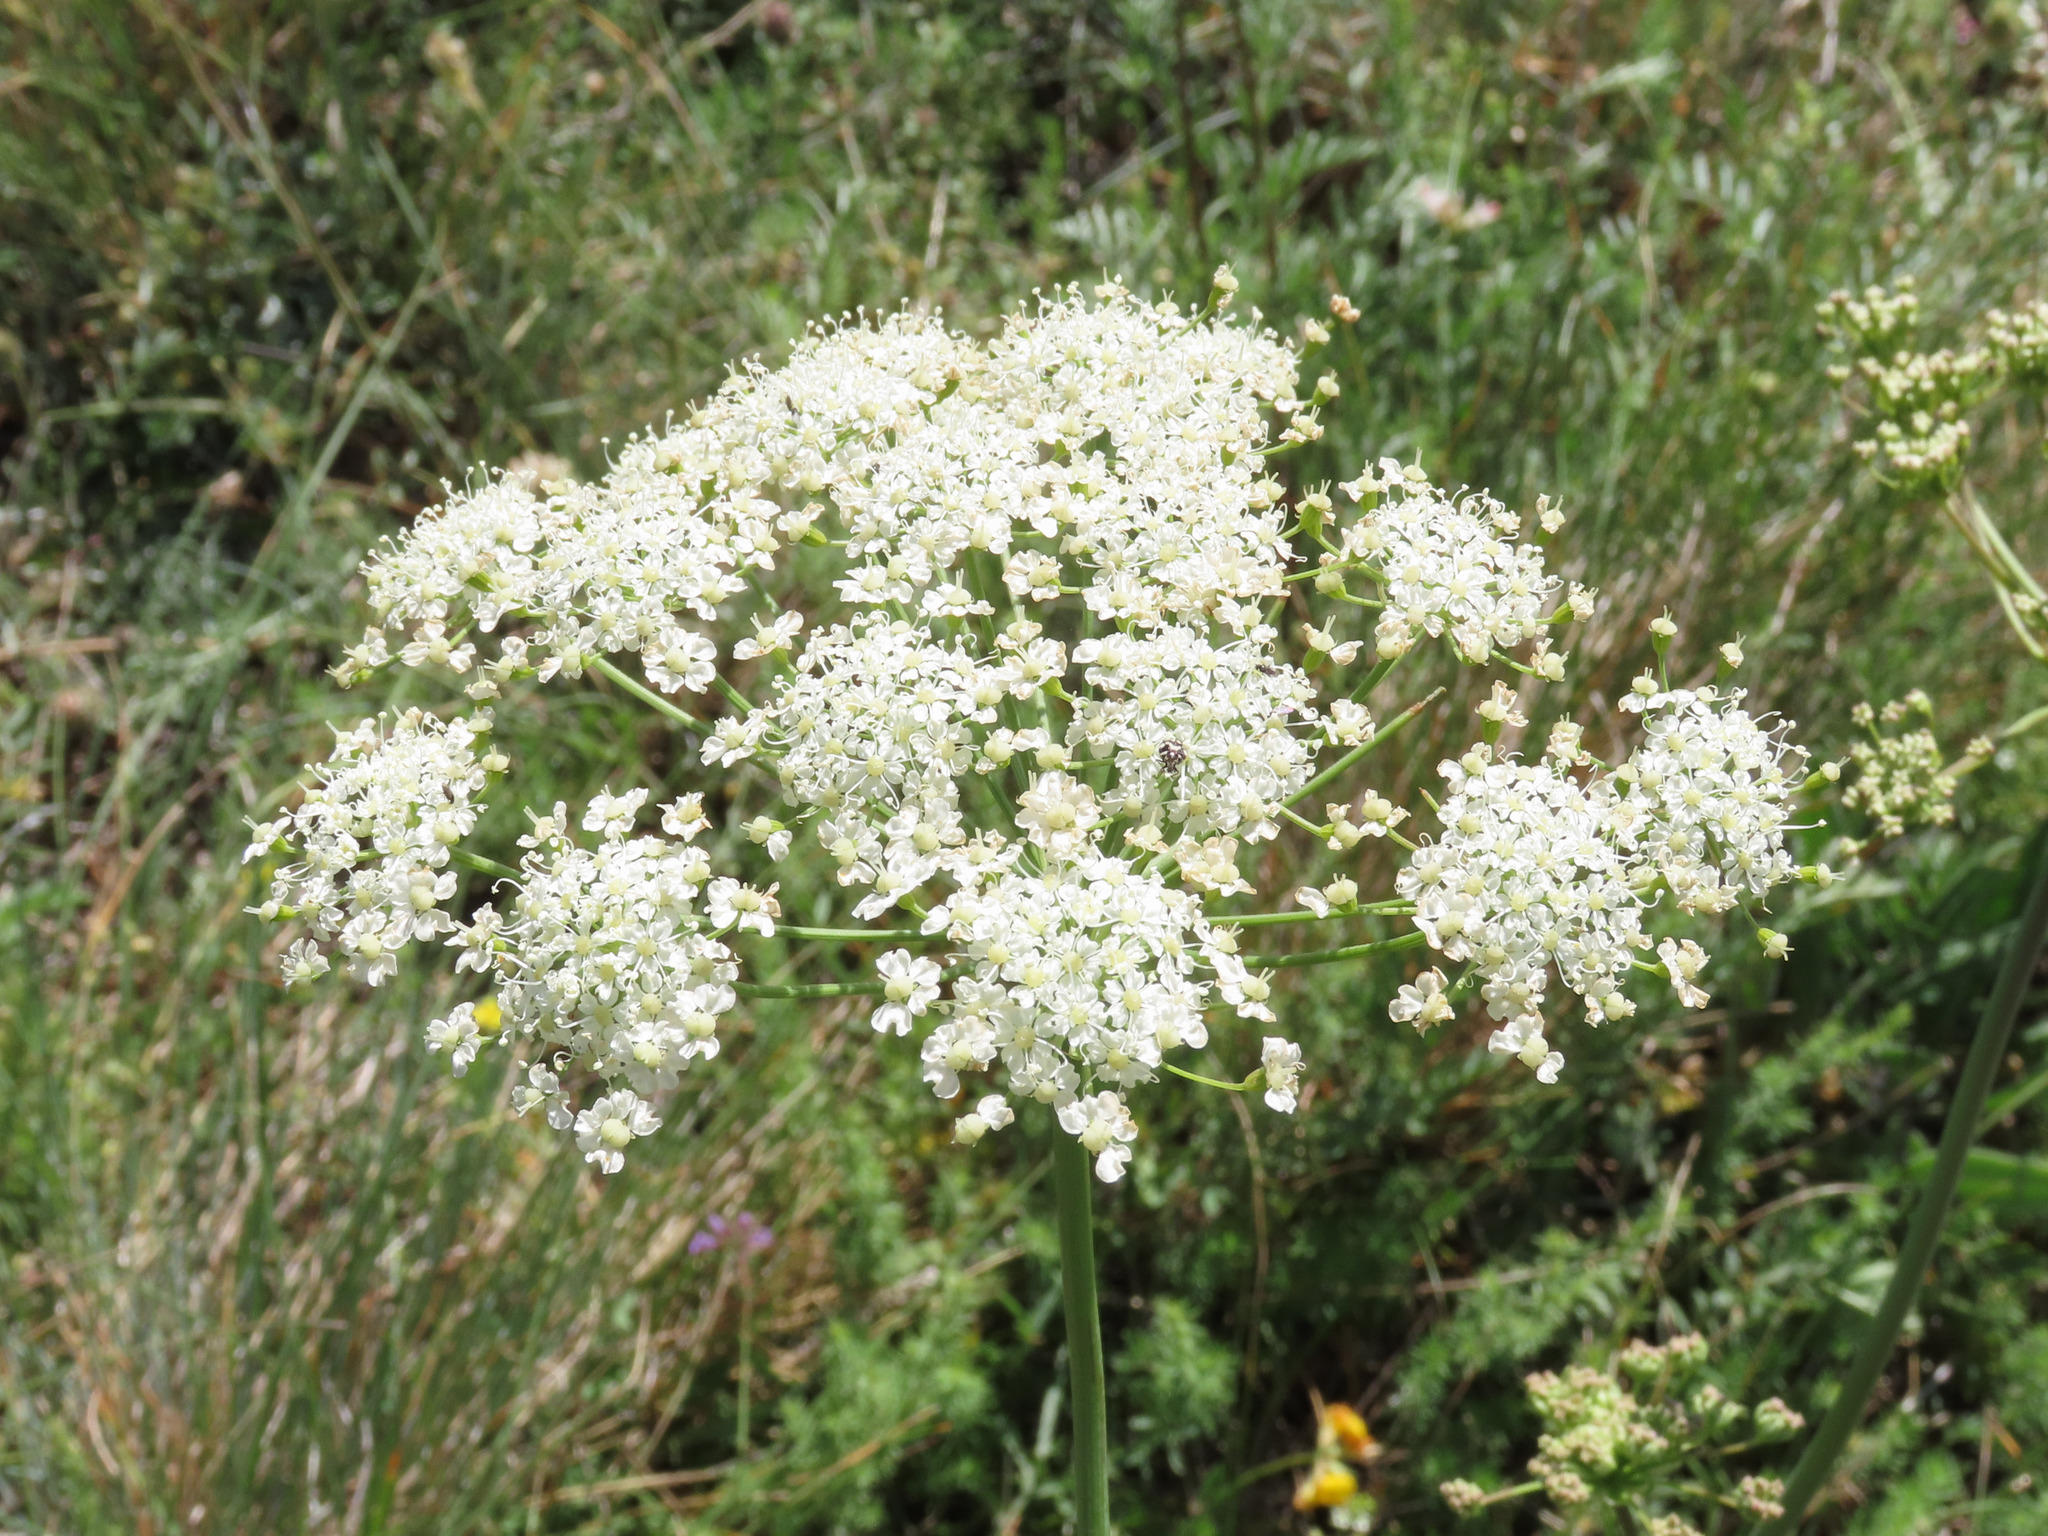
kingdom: Plantae
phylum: Tracheophyta
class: Magnoliopsida
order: Apiales
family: Apiaceae
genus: Siler
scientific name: Siler montanum
